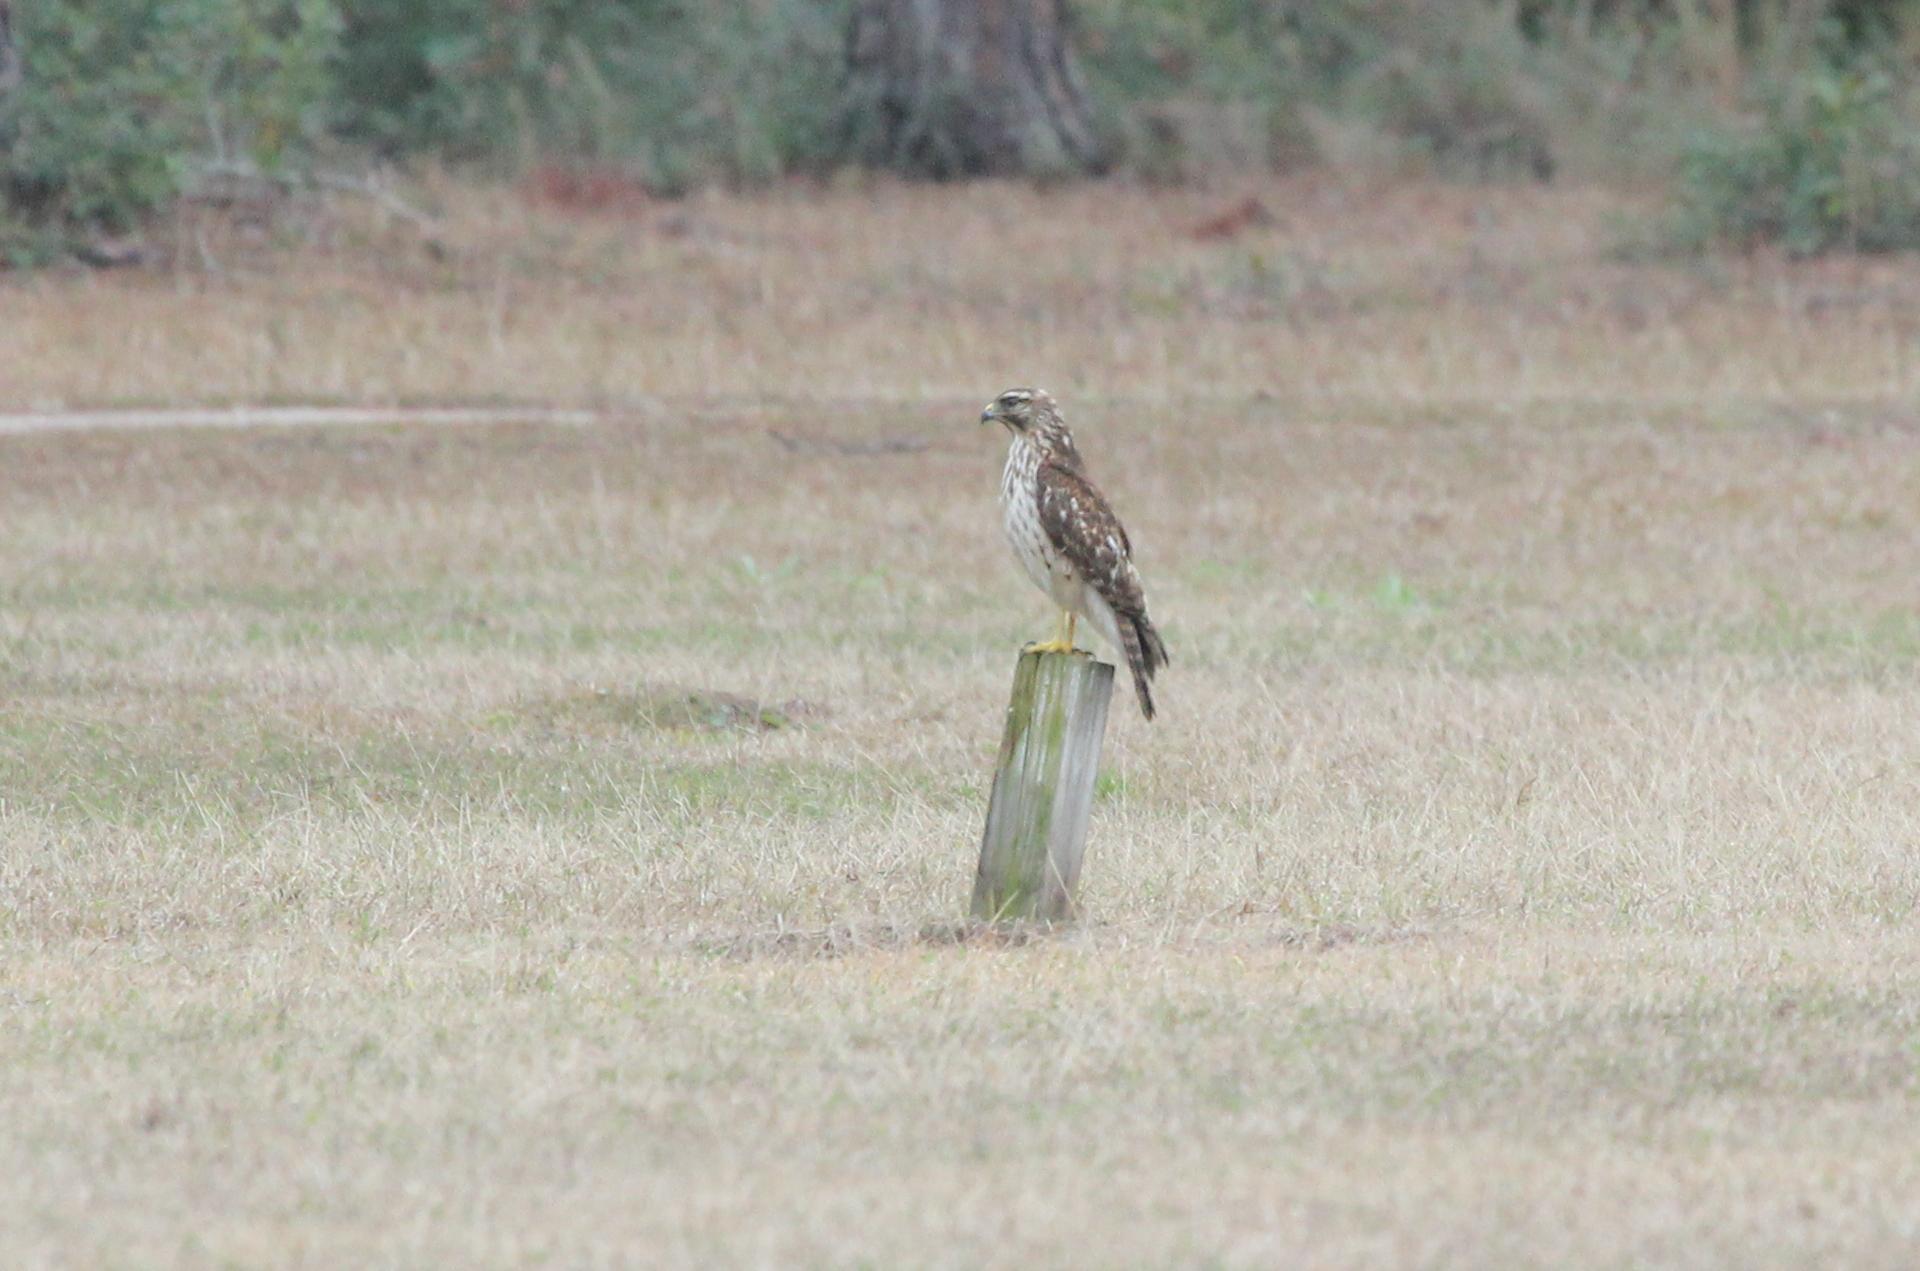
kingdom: Animalia
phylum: Chordata
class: Aves
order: Accipitriformes
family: Accipitridae
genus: Buteo
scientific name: Buteo lineatus
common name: Red-shouldered hawk
